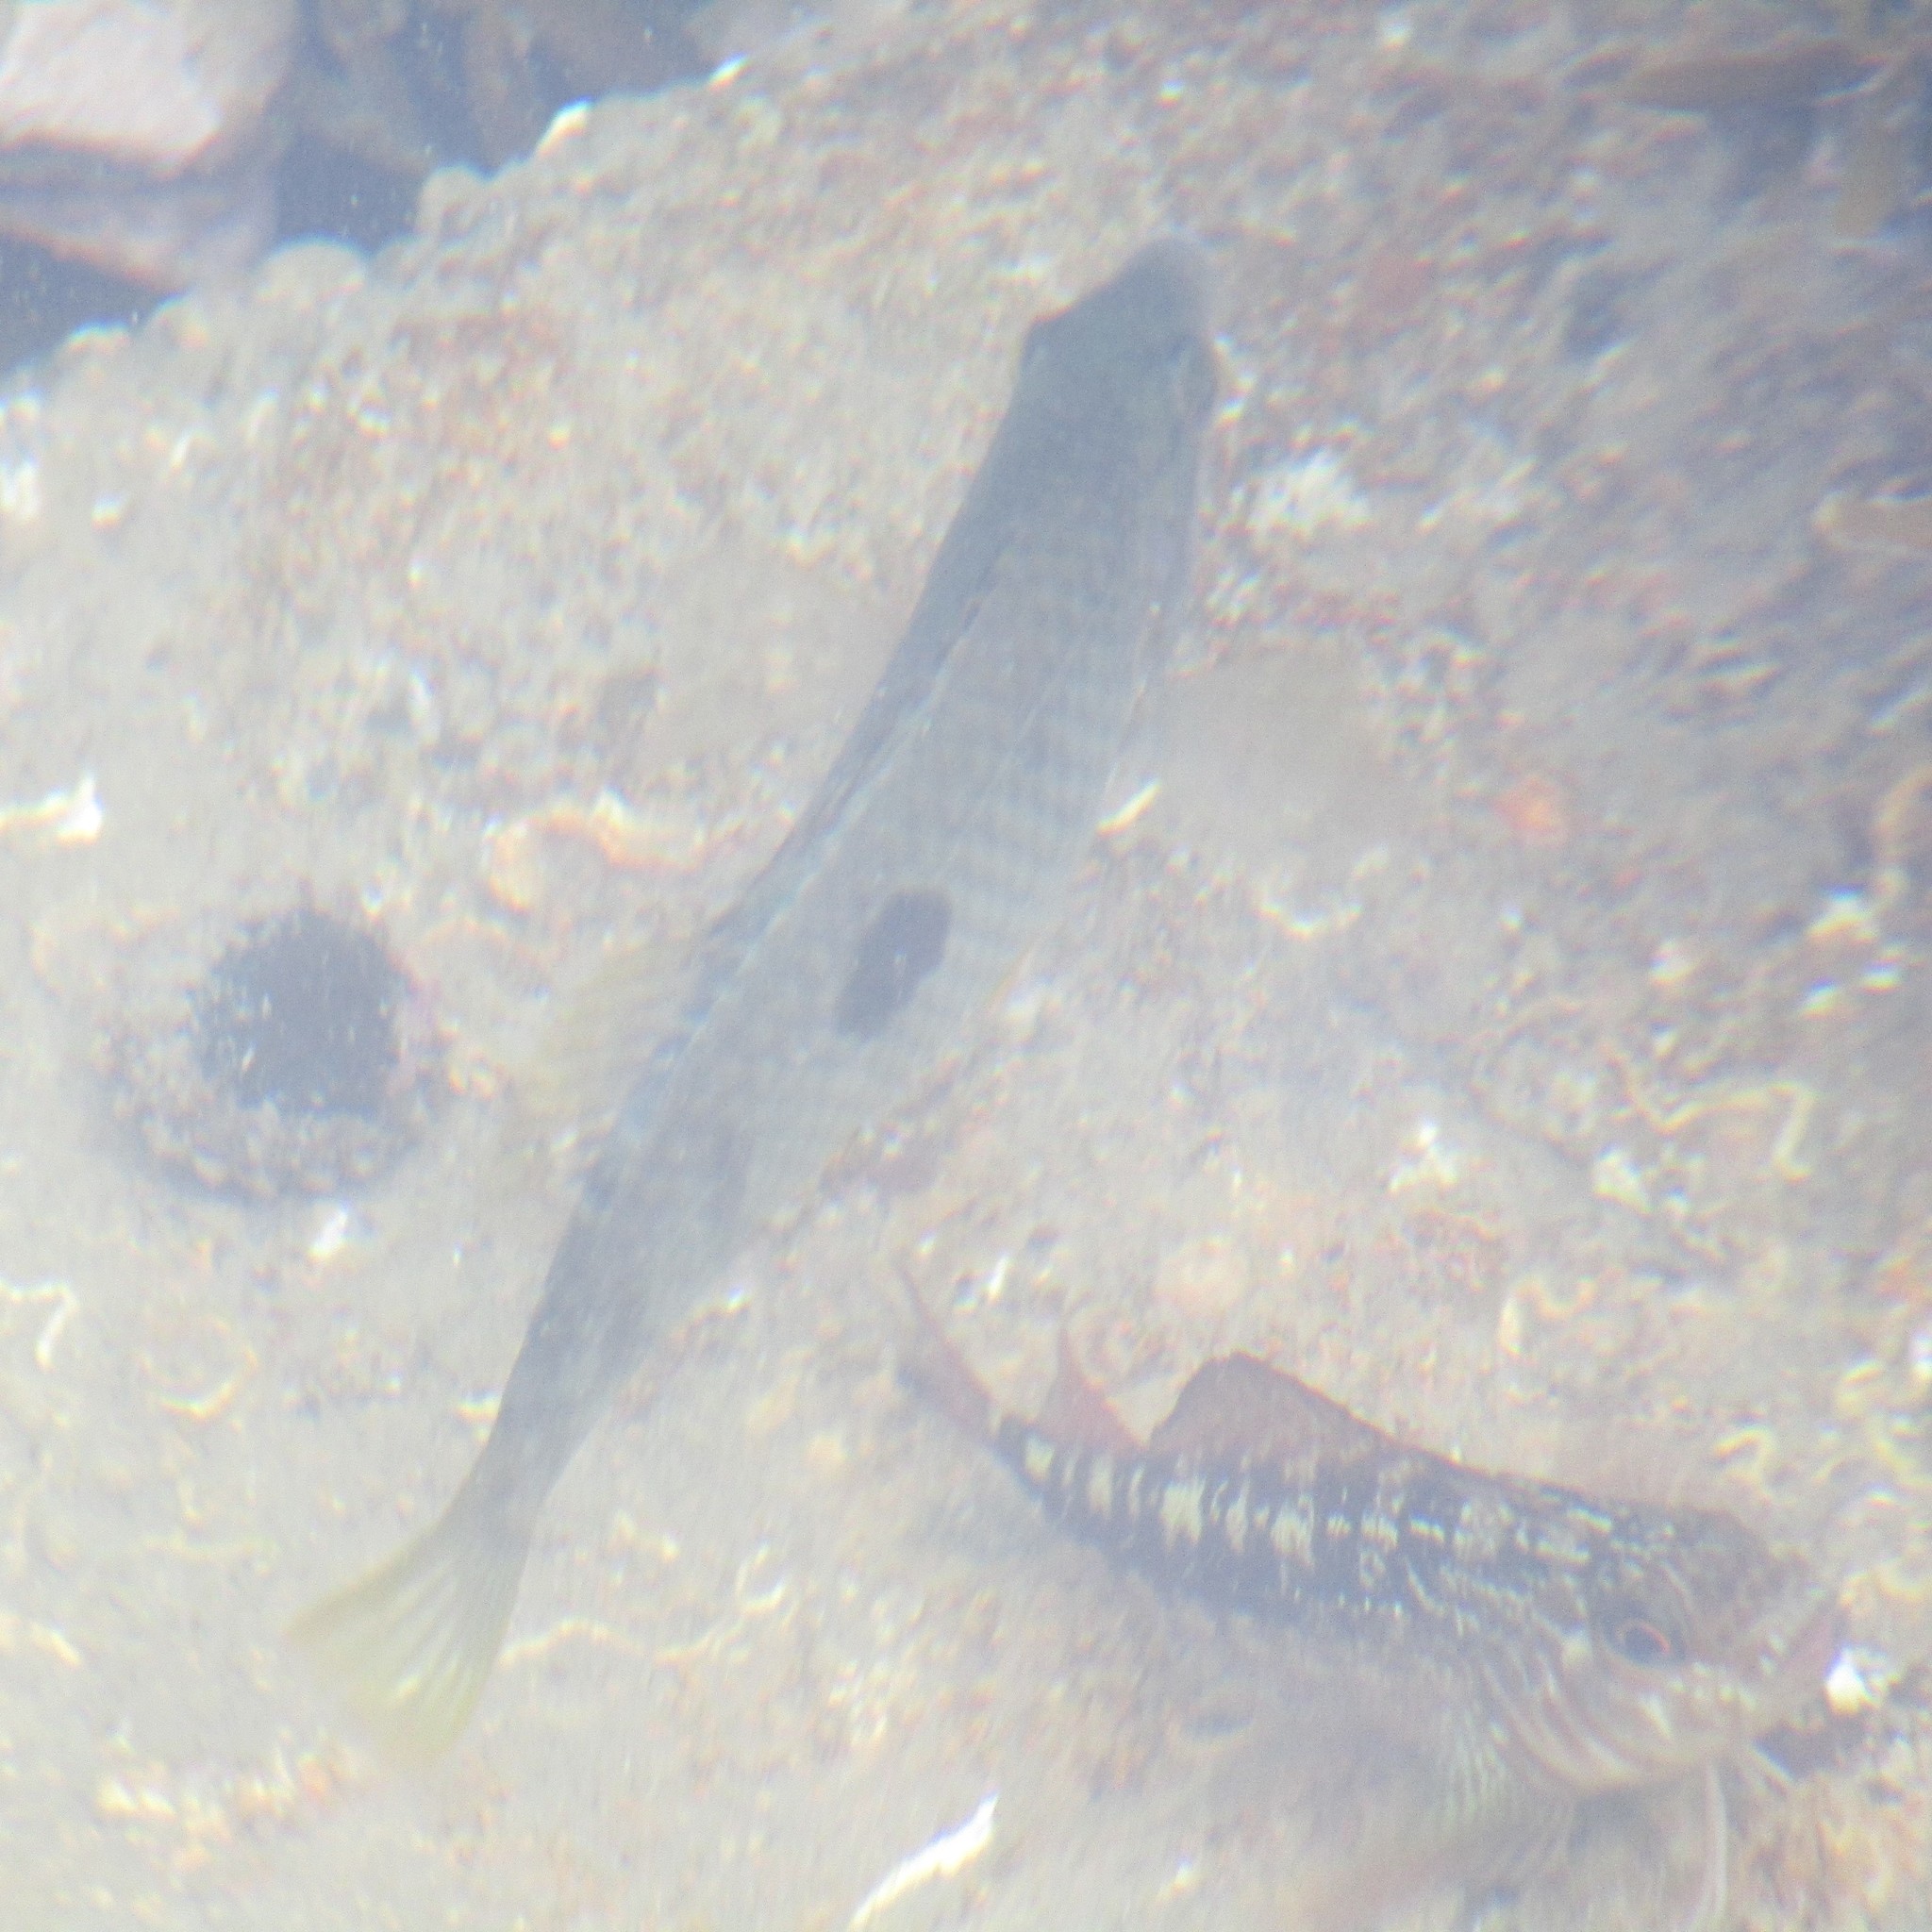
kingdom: Animalia
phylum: Chordata
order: Perciformes
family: Labridae
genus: Notolabrus
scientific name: Notolabrus celidotus
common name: Spotty
